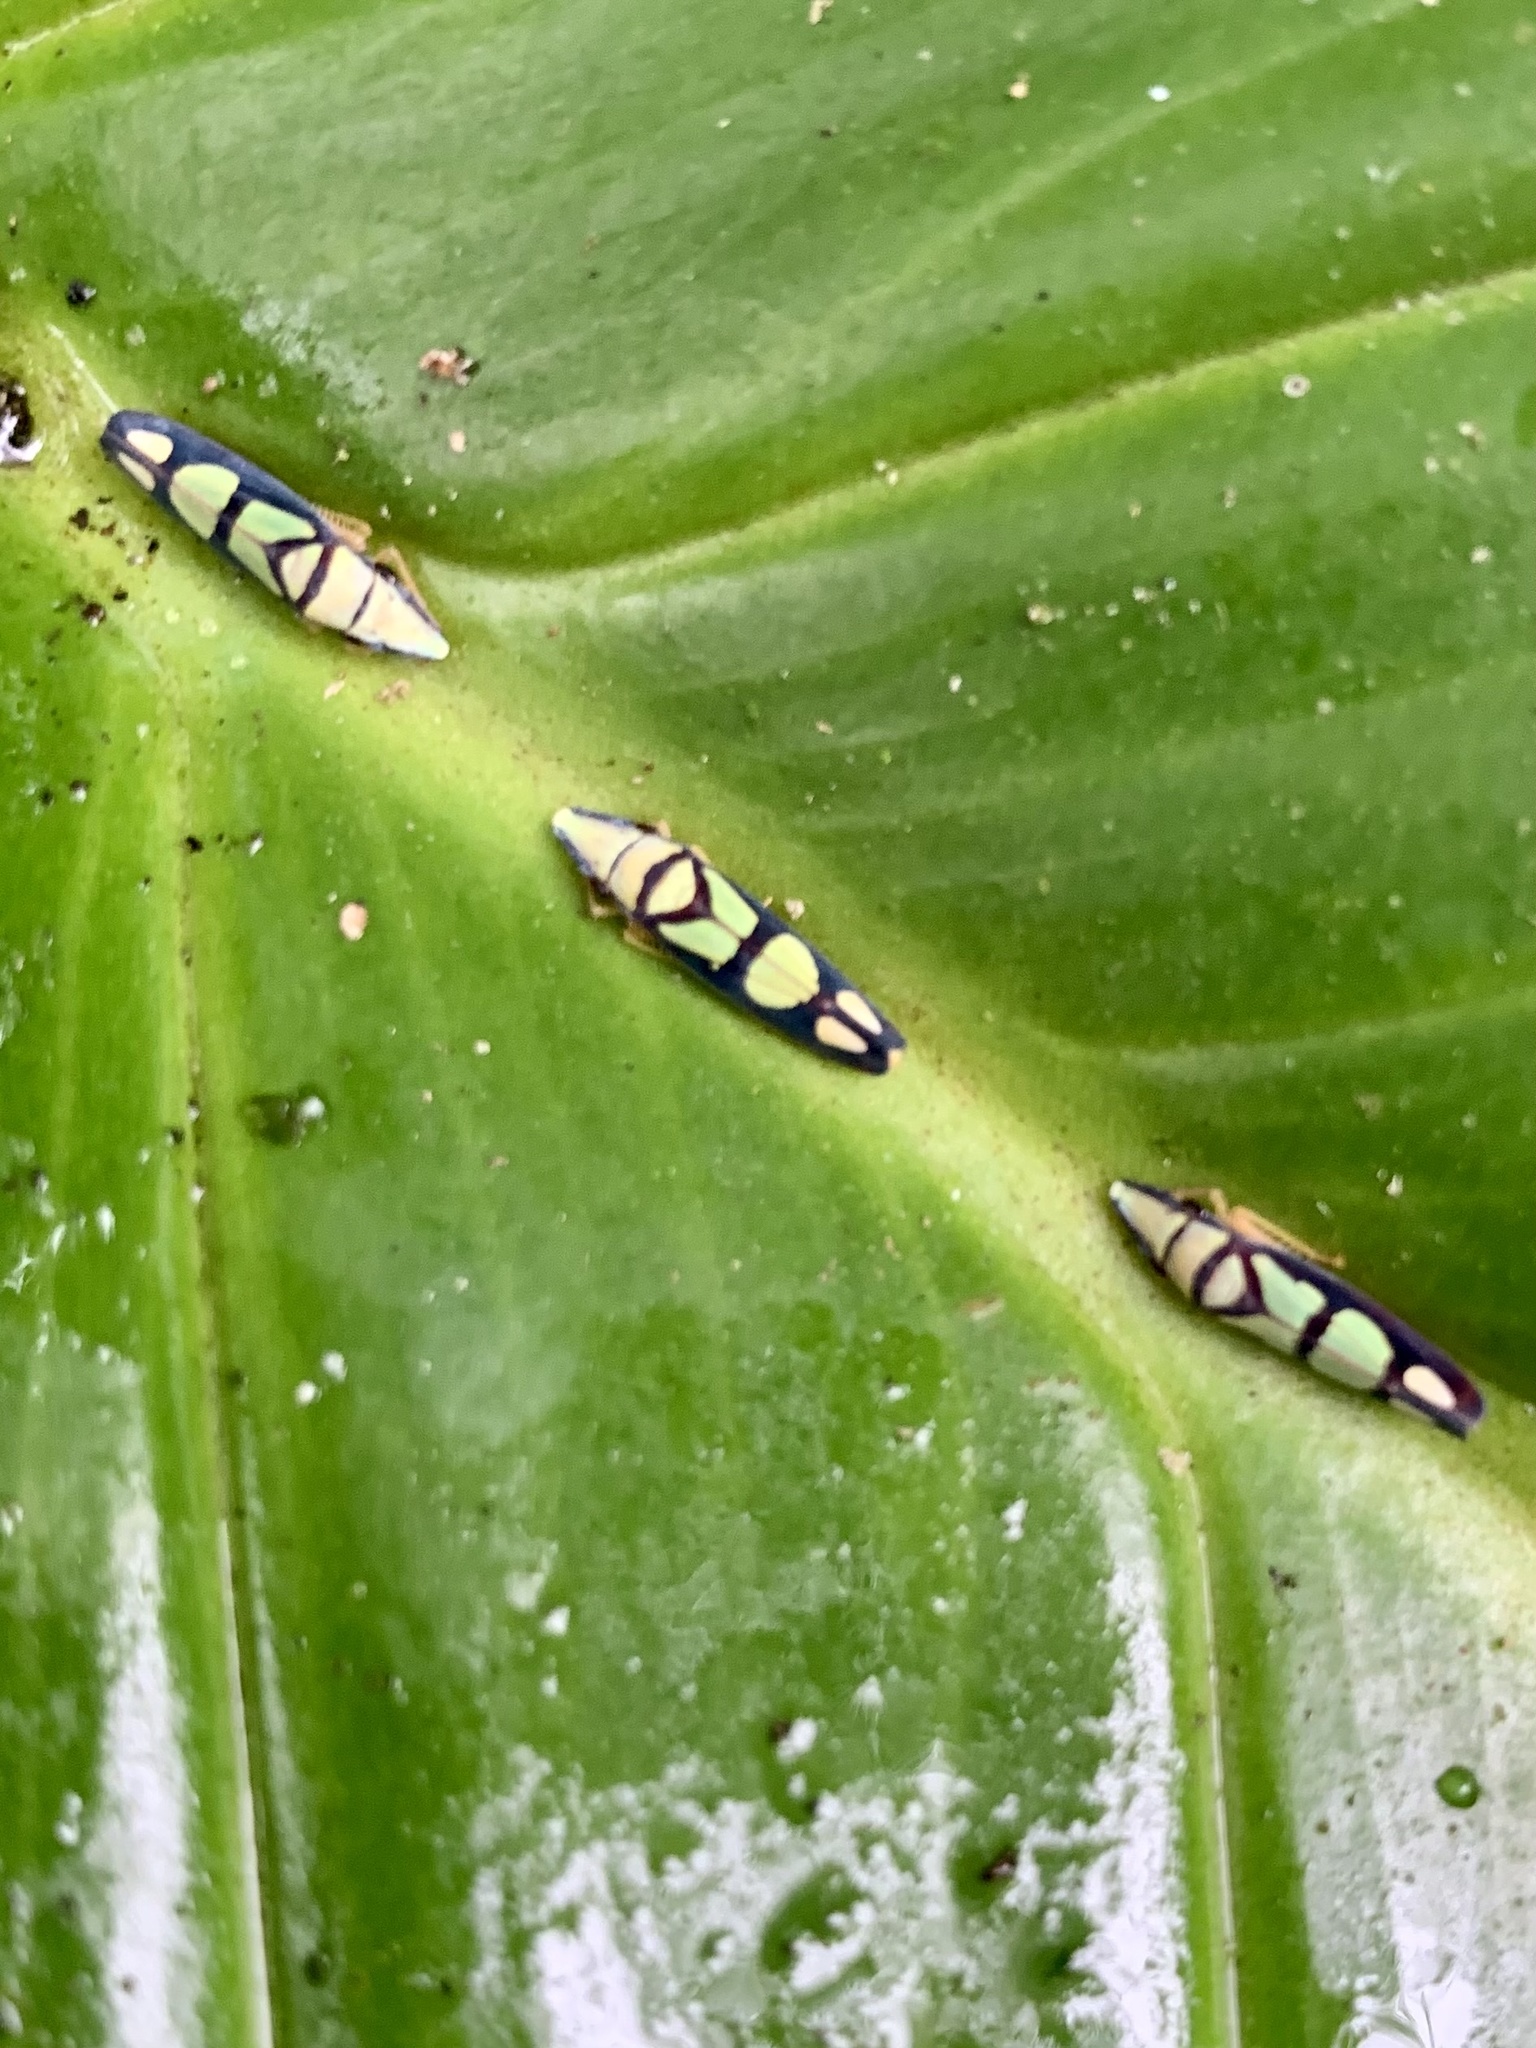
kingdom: Animalia
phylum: Arthropoda
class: Insecta
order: Hemiptera
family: Cicadellidae
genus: Platygonia
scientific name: Platygonia spatulata
